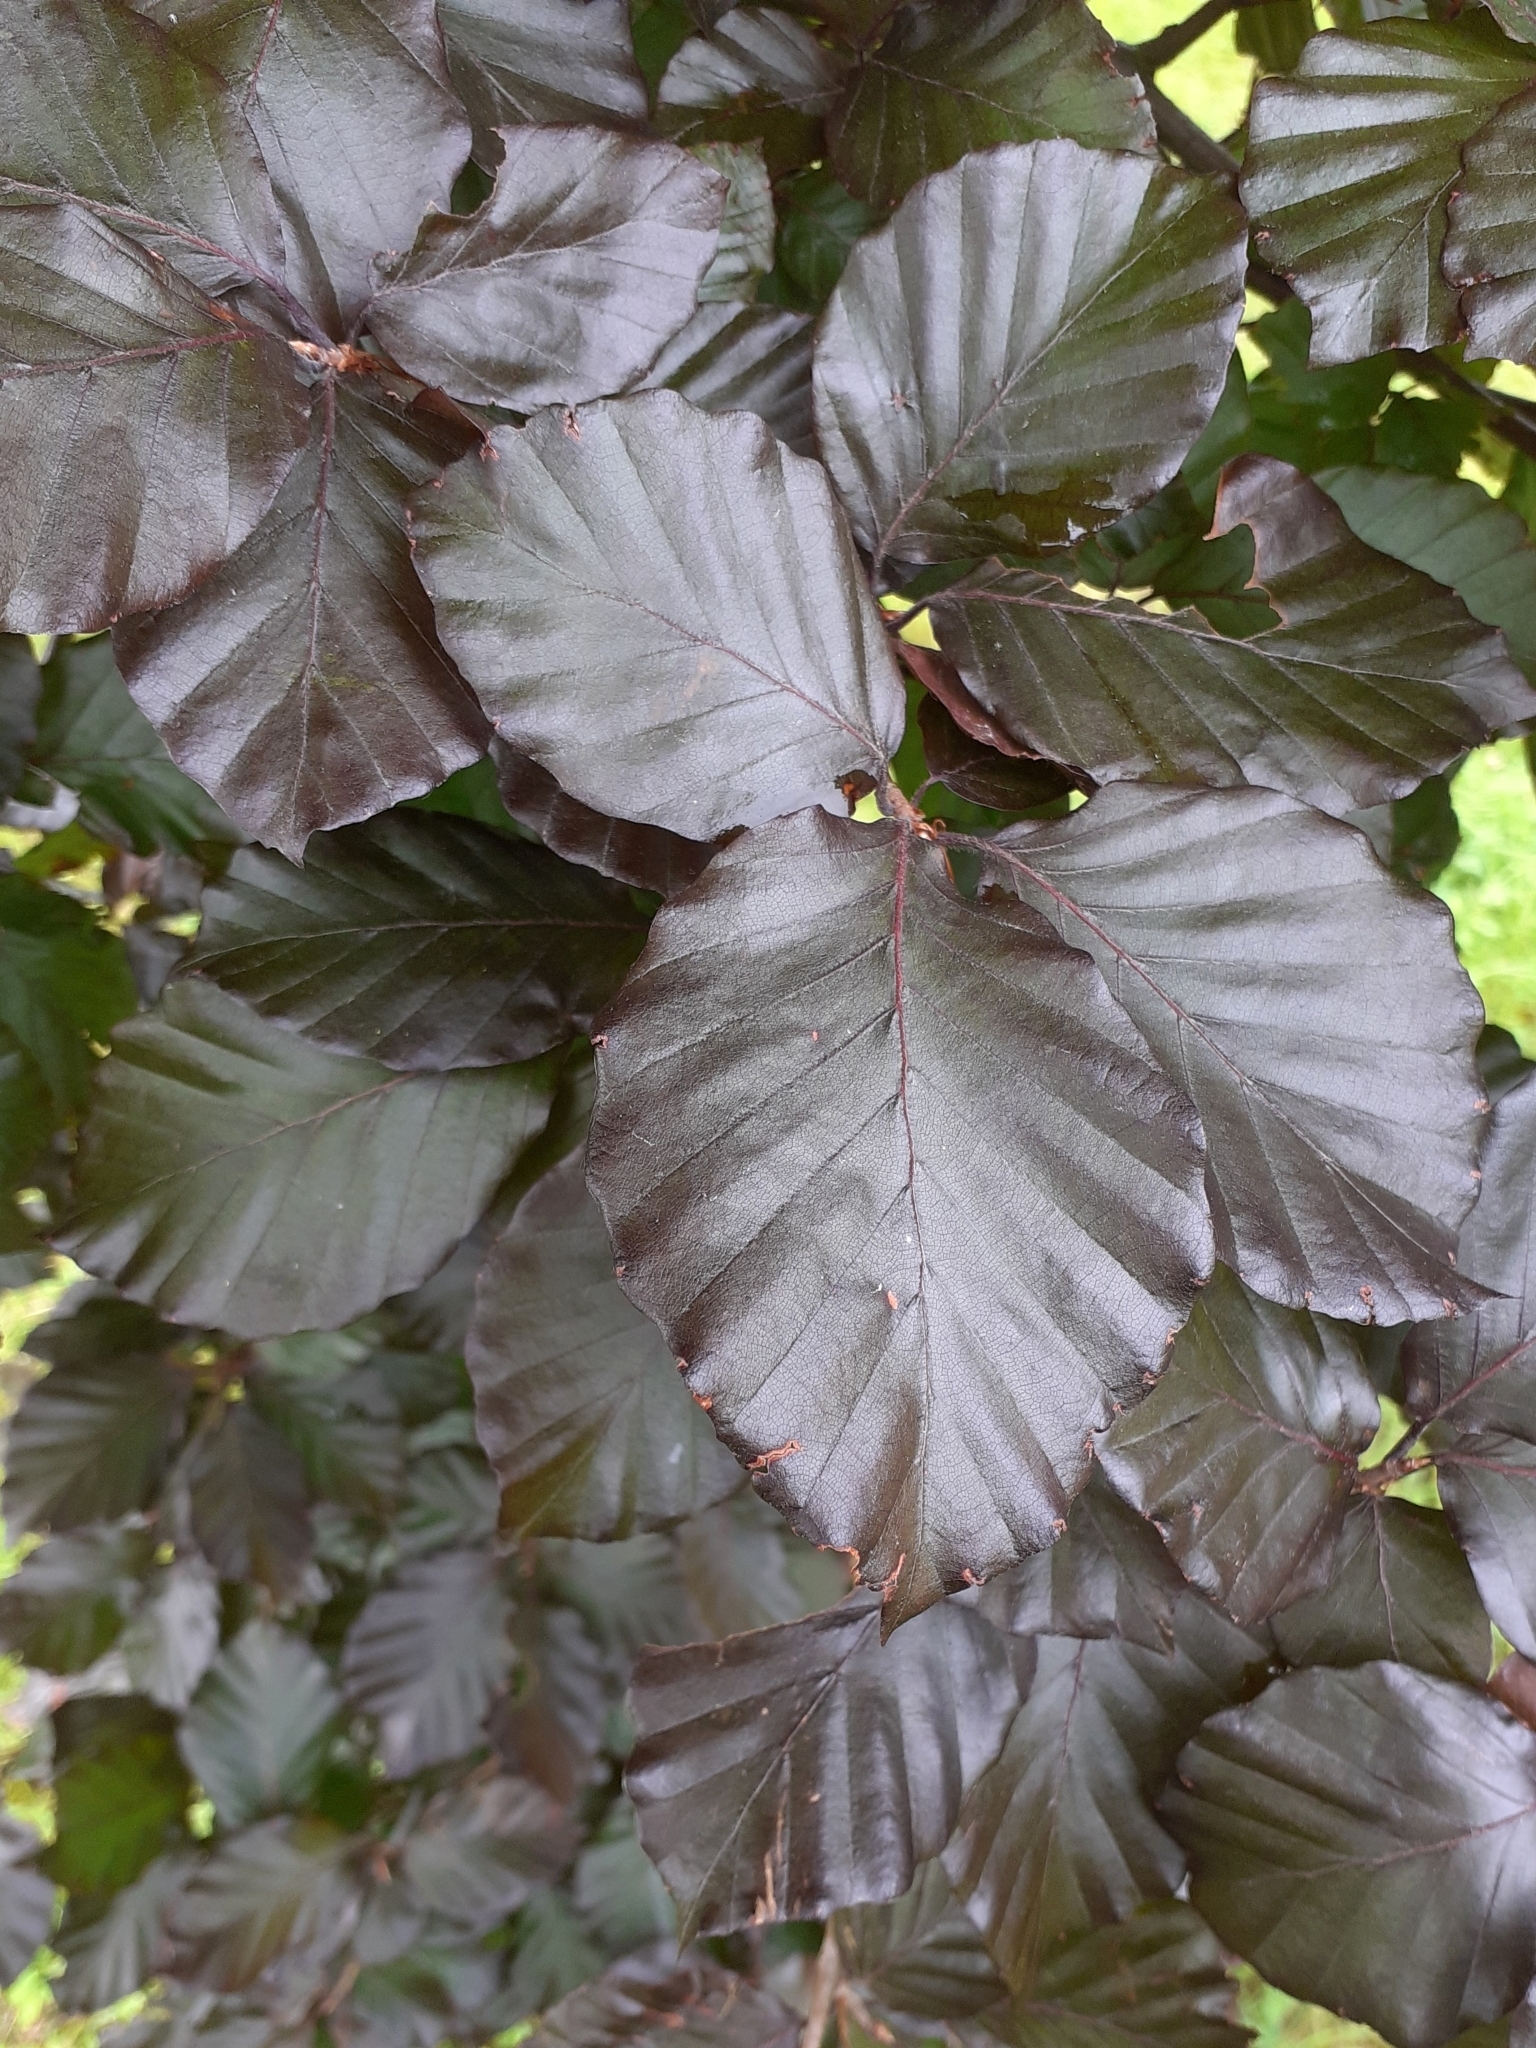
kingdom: Plantae
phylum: Tracheophyta
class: Magnoliopsida
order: Fagales
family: Fagaceae
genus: Fagus
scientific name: Fagus sylvatica
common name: Beech
